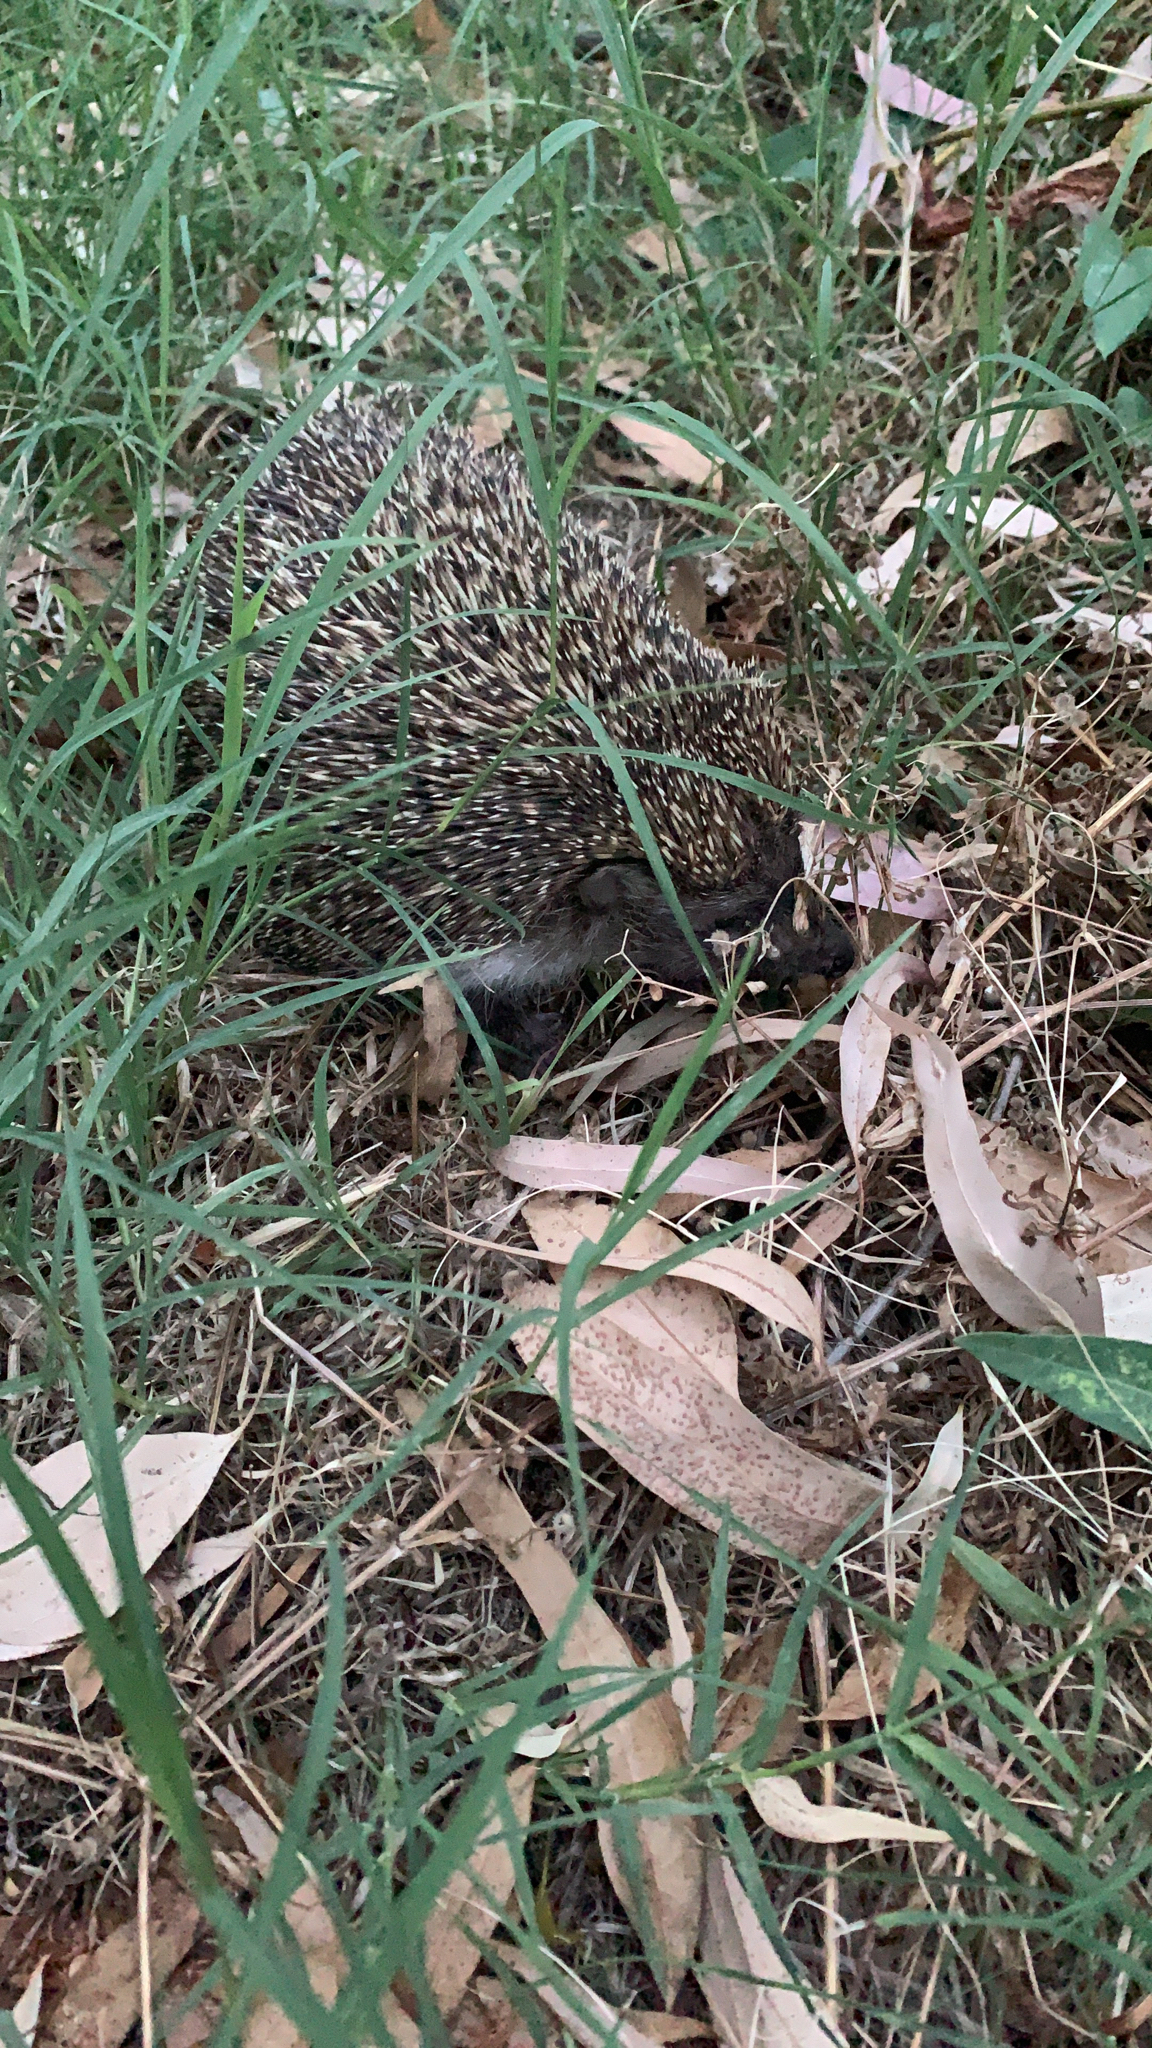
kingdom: Animalia
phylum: Chordata
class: Mammalia
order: Erinaceomorpha
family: Erinaceidae
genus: Erinaceus
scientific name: Erinaceus concolor
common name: Southern white-breasted hedgehog
